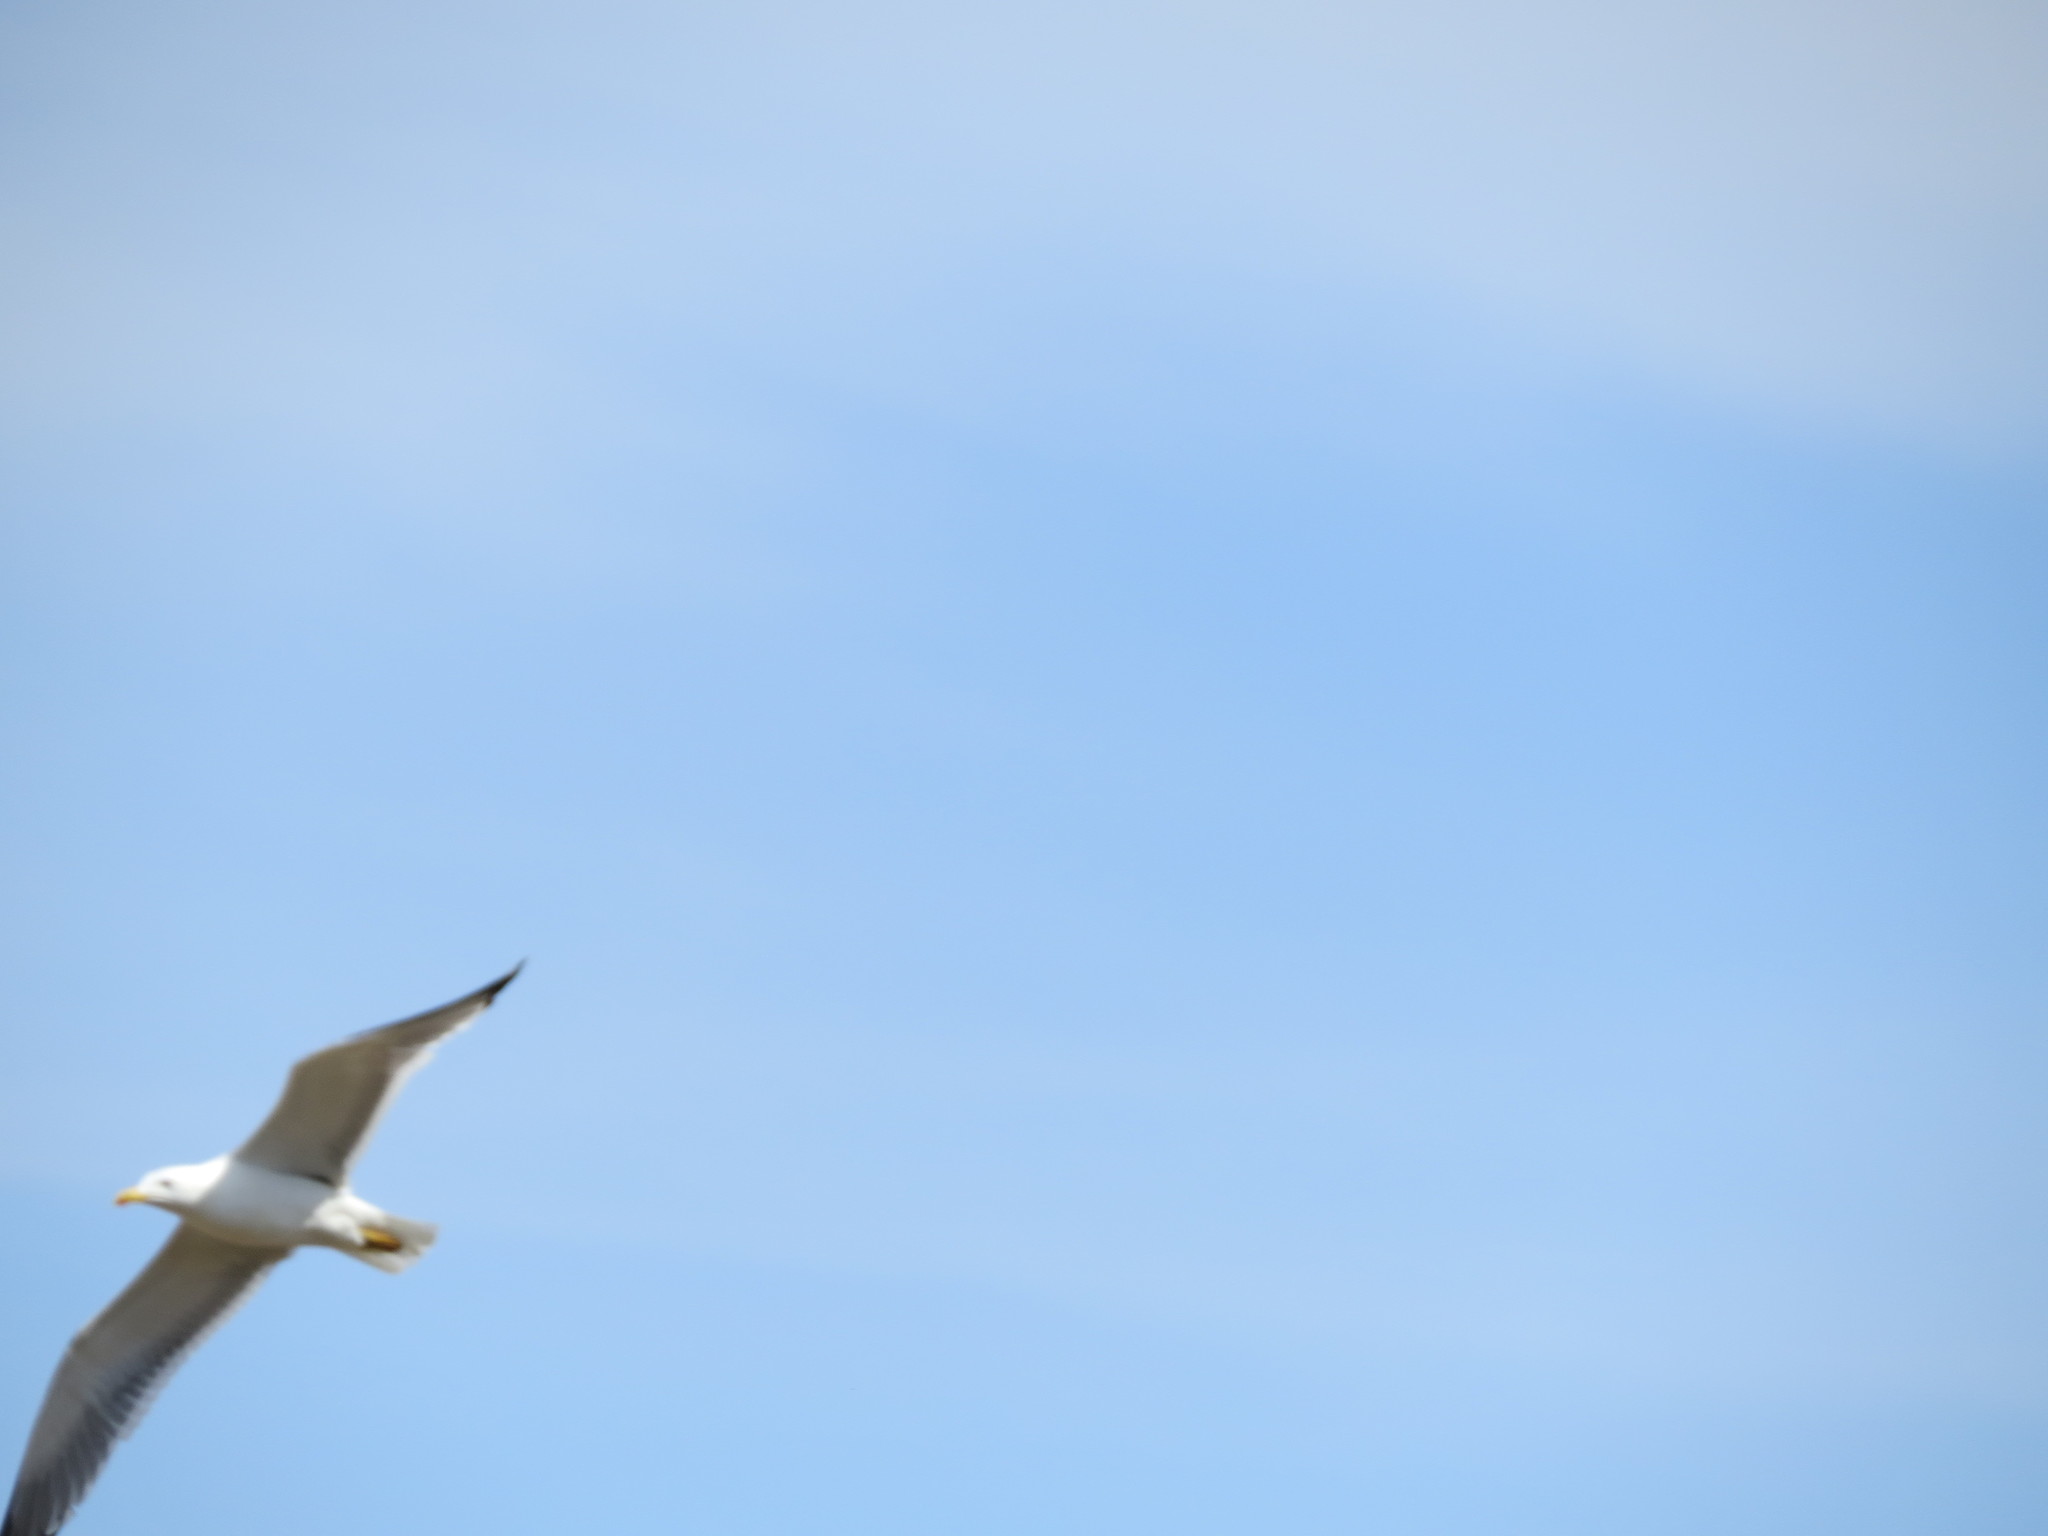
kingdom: Animalia
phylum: Chordata
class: Aves
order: Charadriiformes
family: Laridae
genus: Larus
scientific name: Larus fuscus
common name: Lesser black-backed gull
